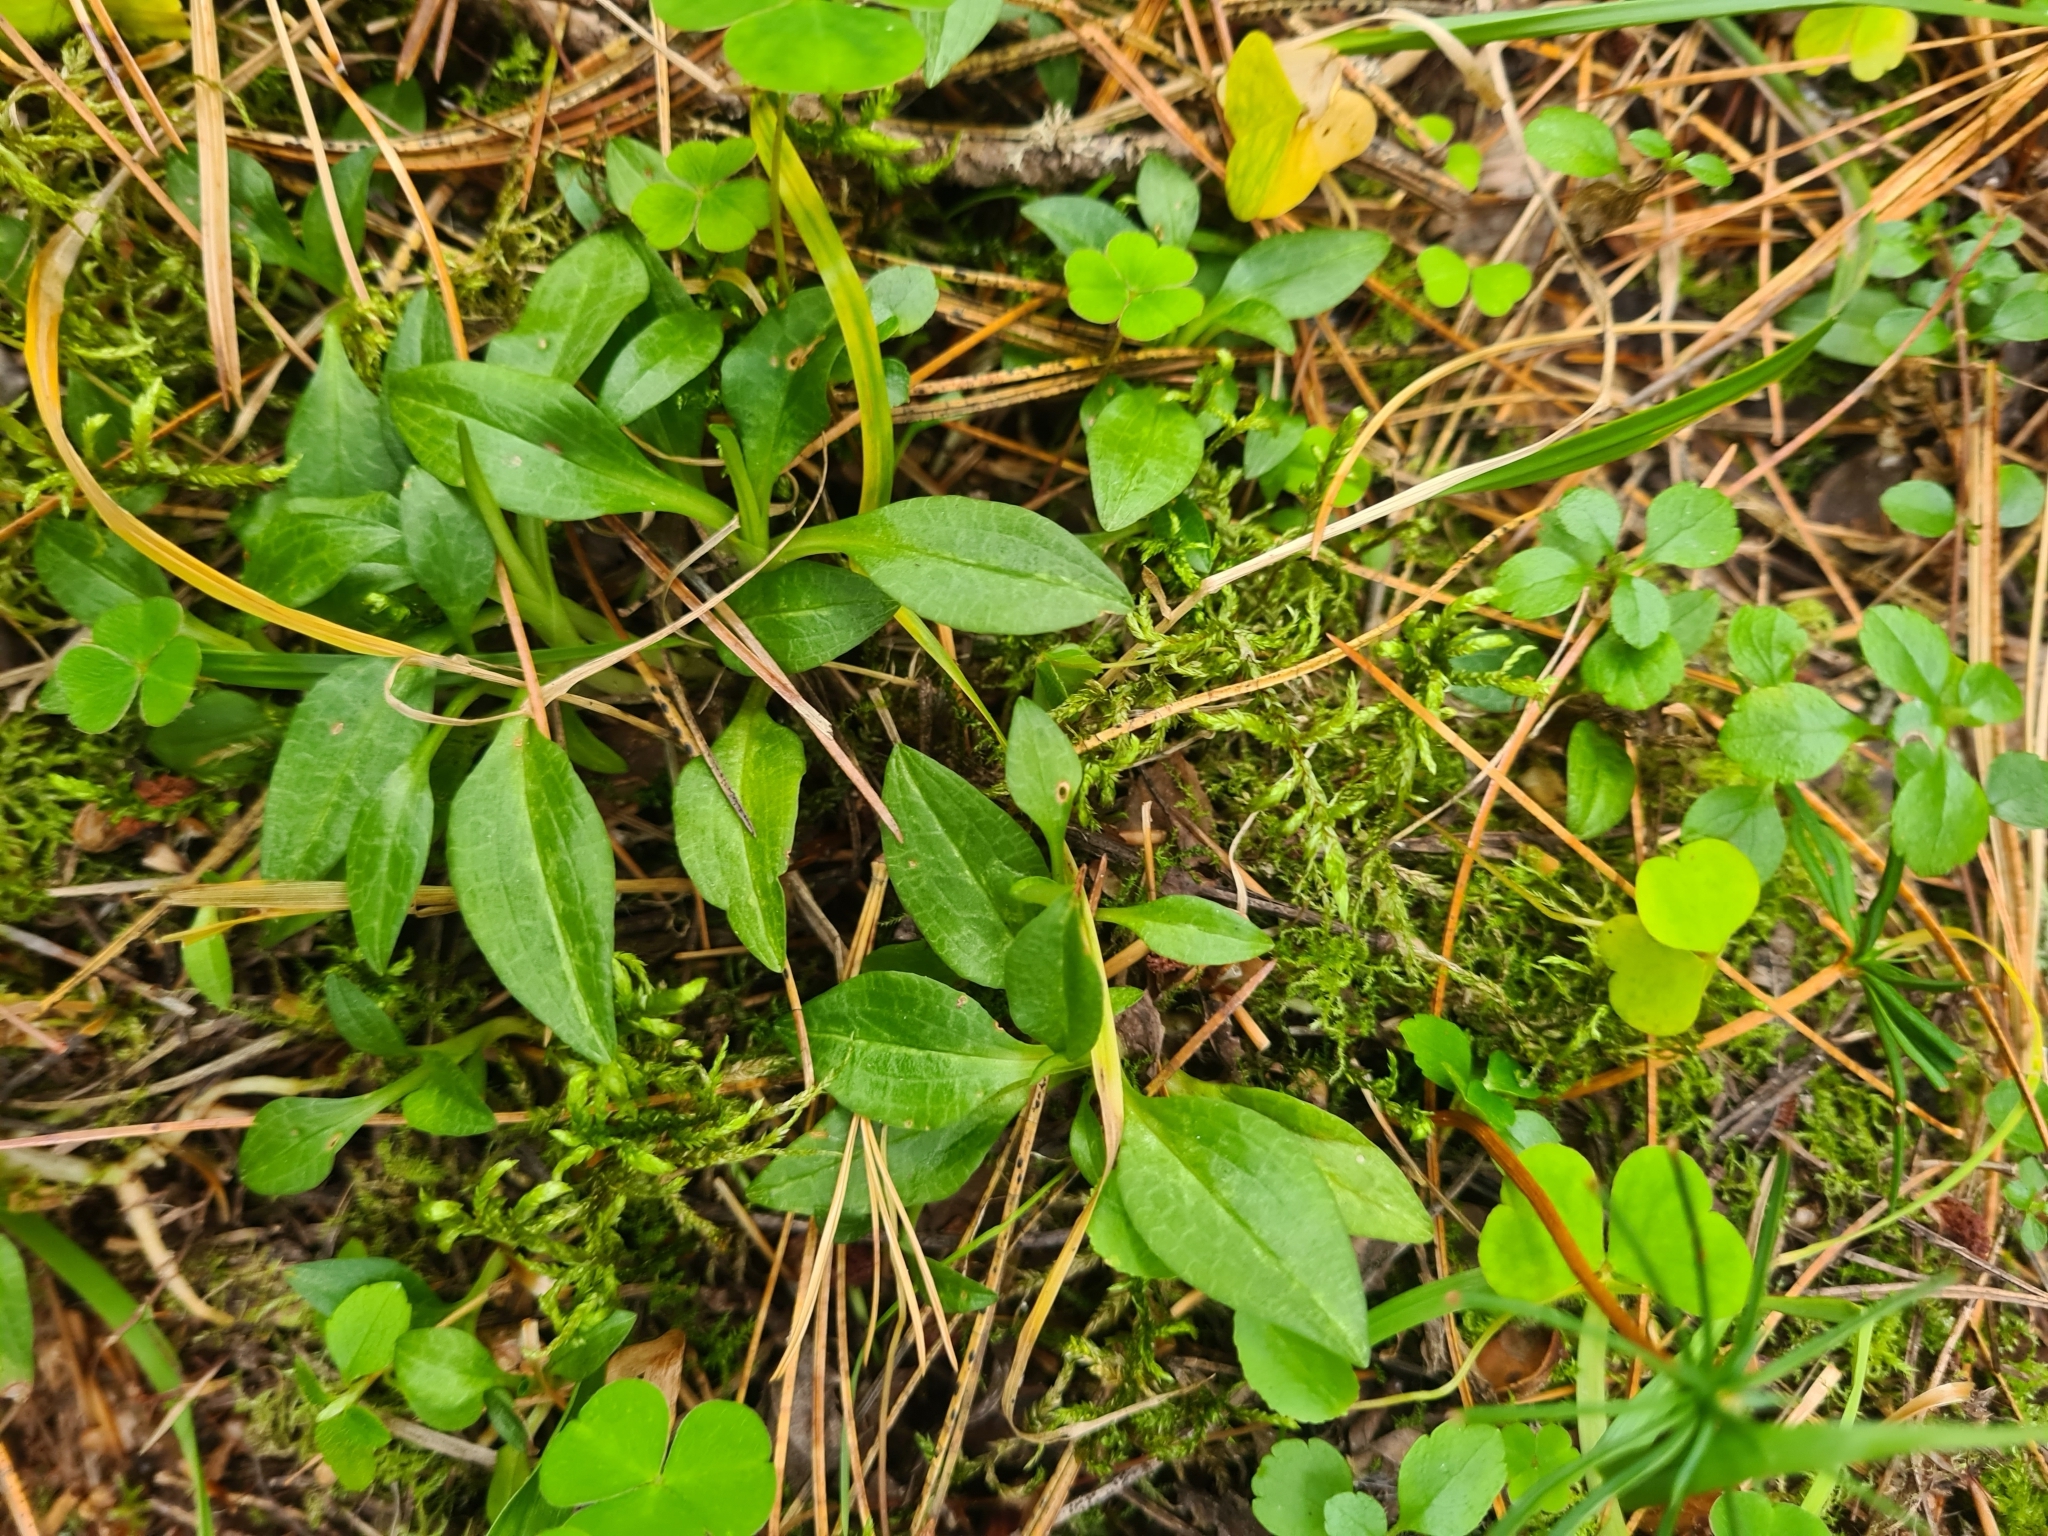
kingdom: Plantae
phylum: Tracheophyta
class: Liliopsida
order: Asparagales
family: Orchidaceae
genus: Goodyera
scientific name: Goodyera repens
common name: Creeping lady's-tresses
